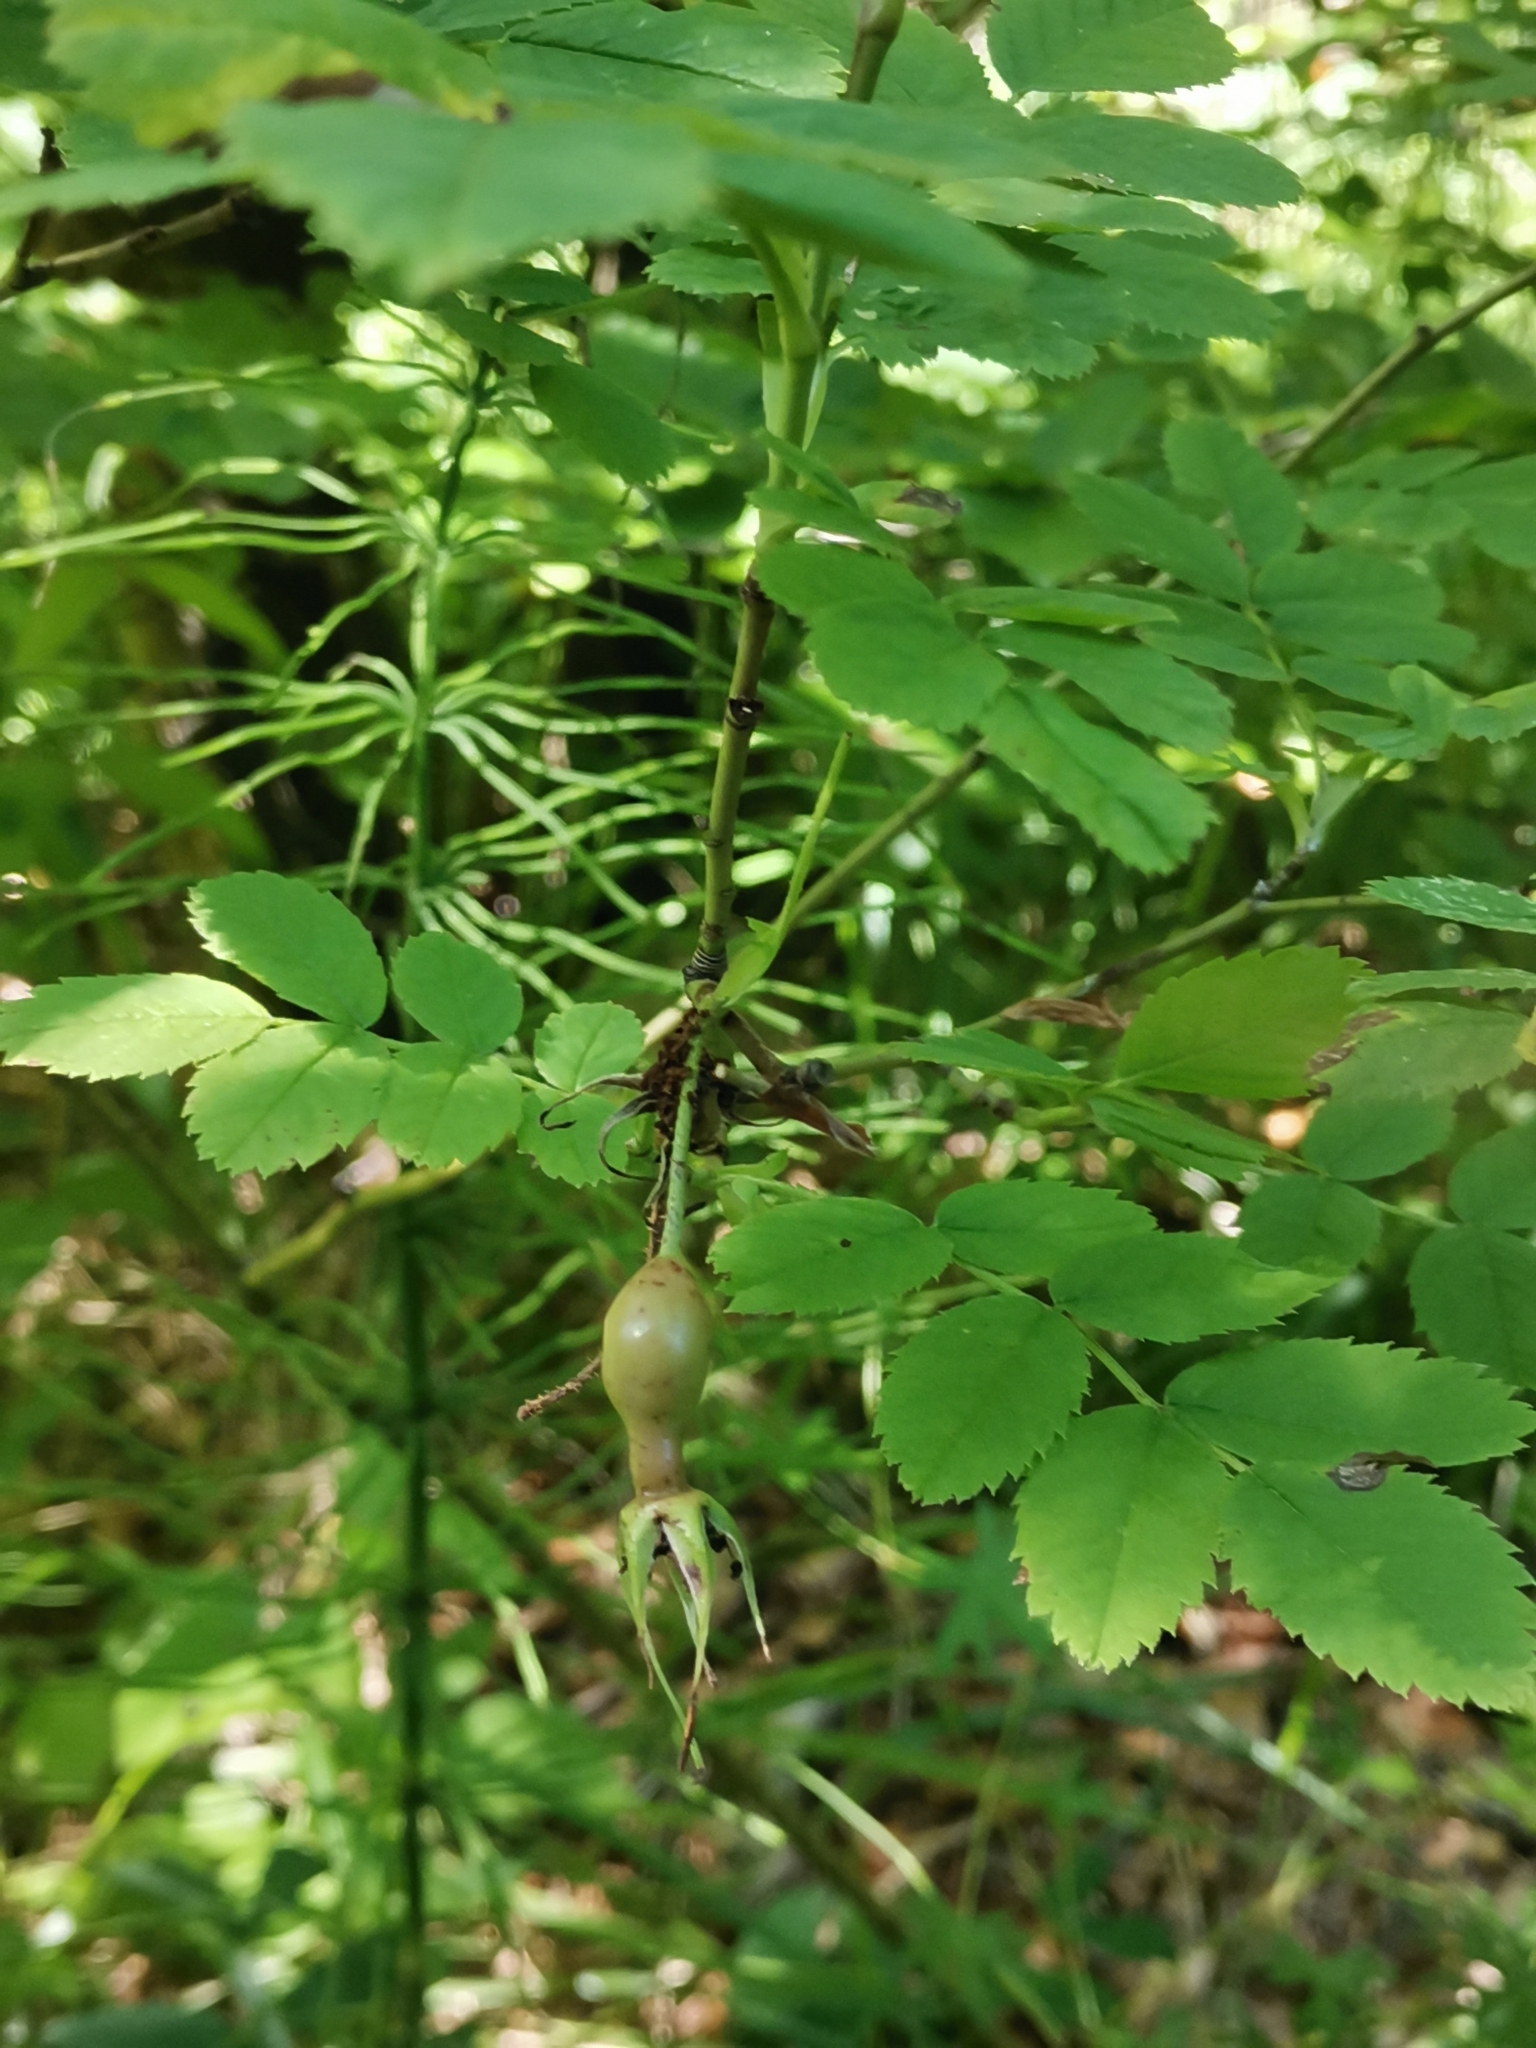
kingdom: Plantae
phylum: Tracheophyta
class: Magnoliopsida
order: Rosales
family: Rosaceae
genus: Rosa
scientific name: Rosa pendulina
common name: Alpine rose
